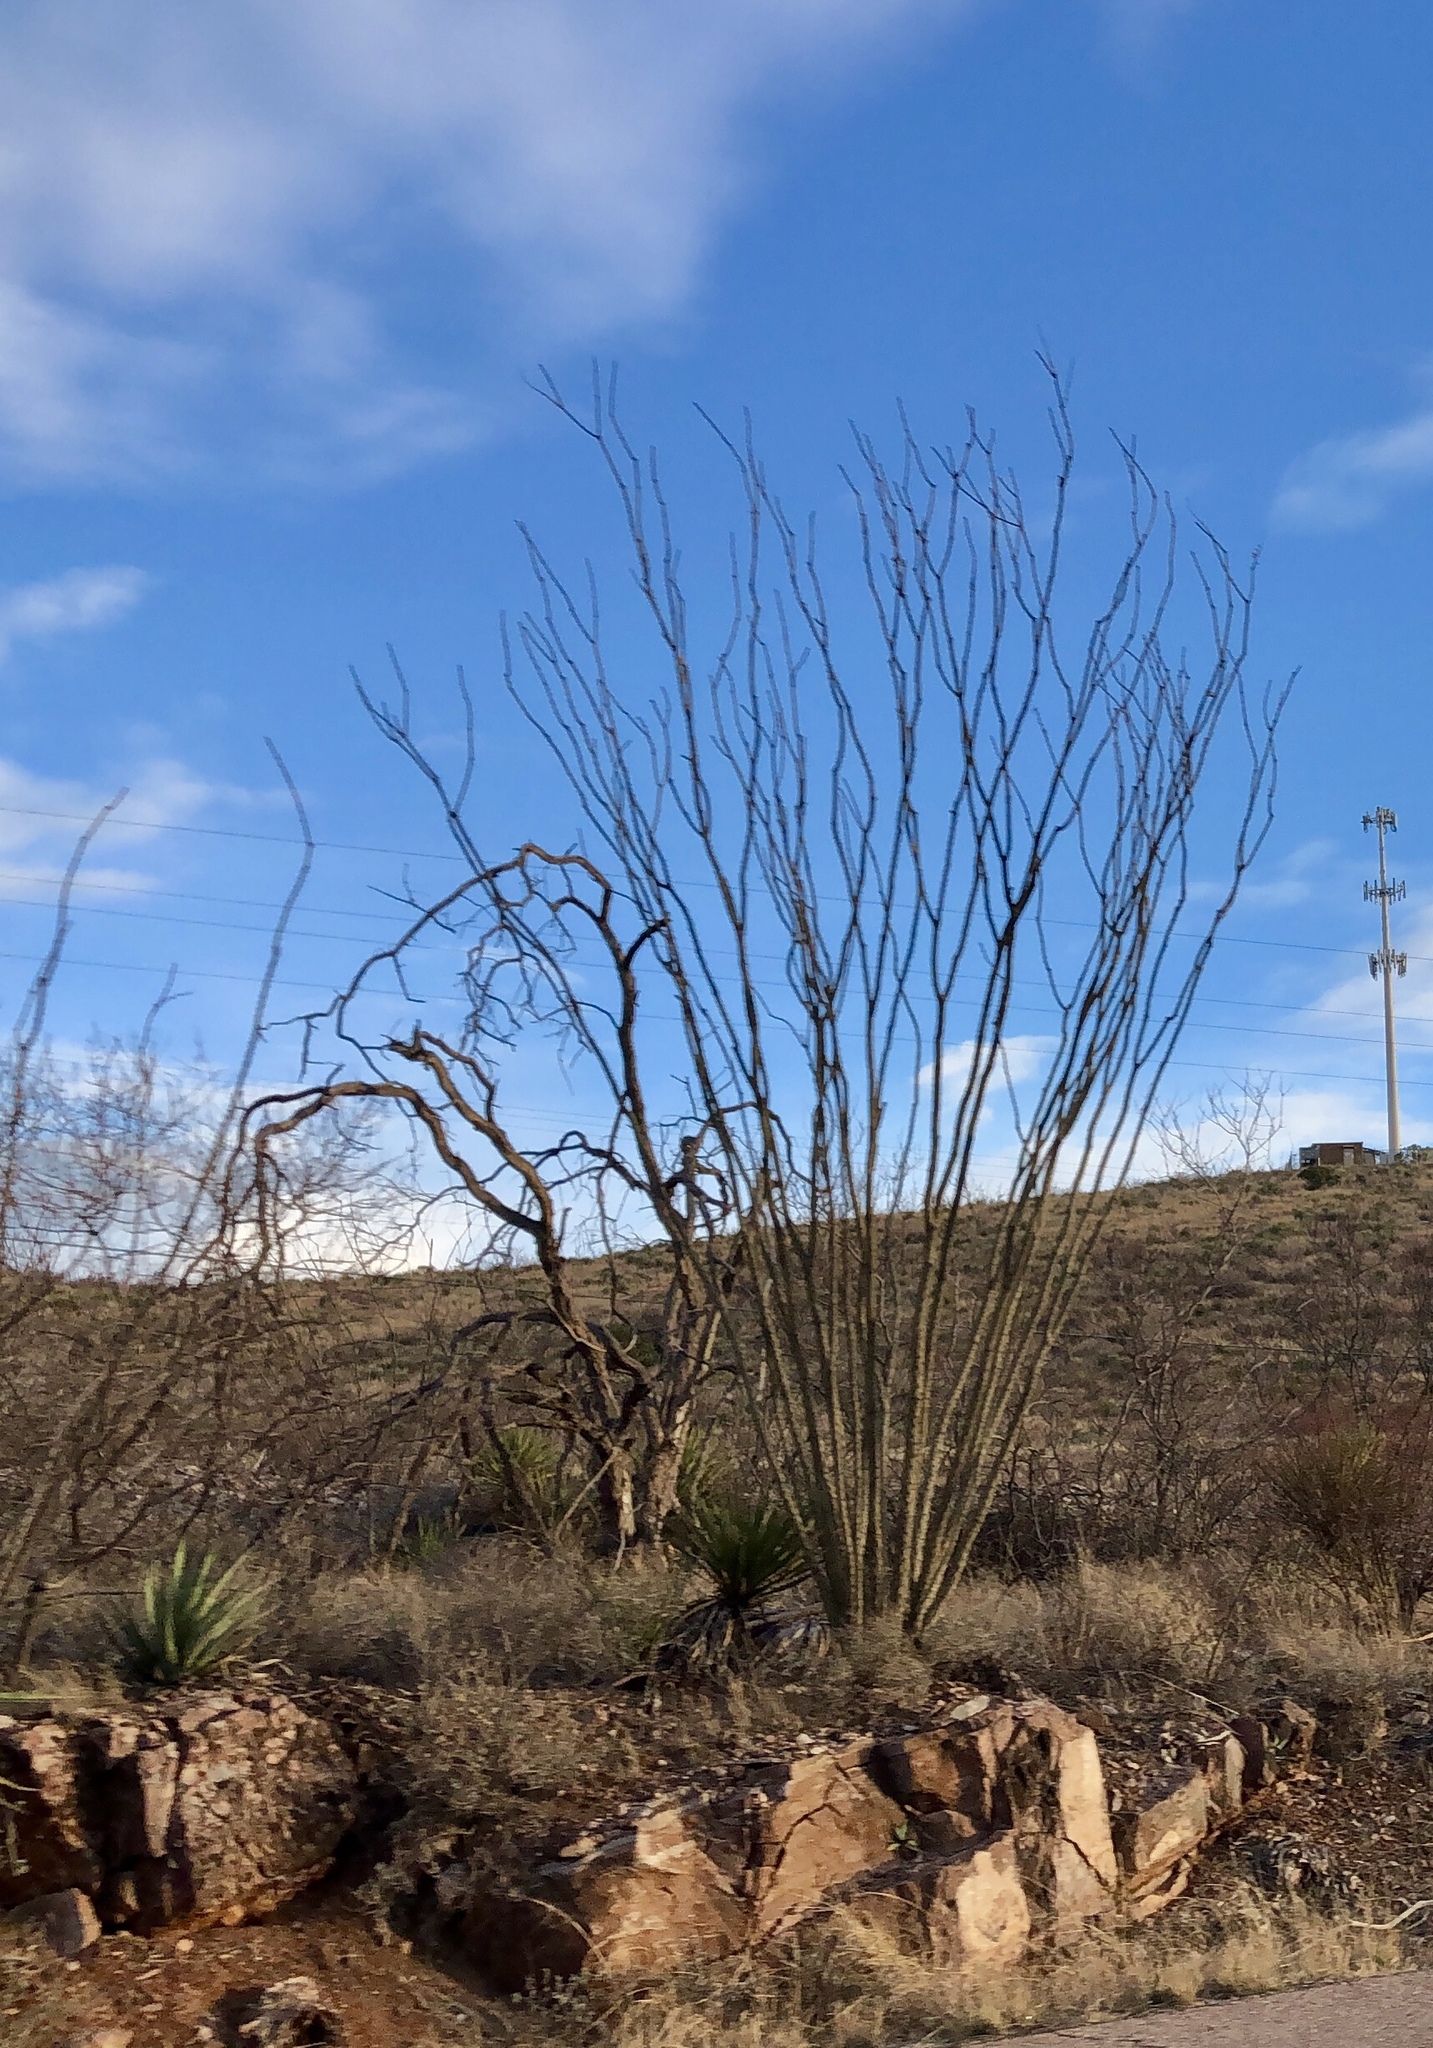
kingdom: Plantae
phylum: Tracheophyta
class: Magnoliopsida
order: Ericales
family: Fouquieriaceae
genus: Fouquieria
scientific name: Fouquieria splendens
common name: Vine-cactus
